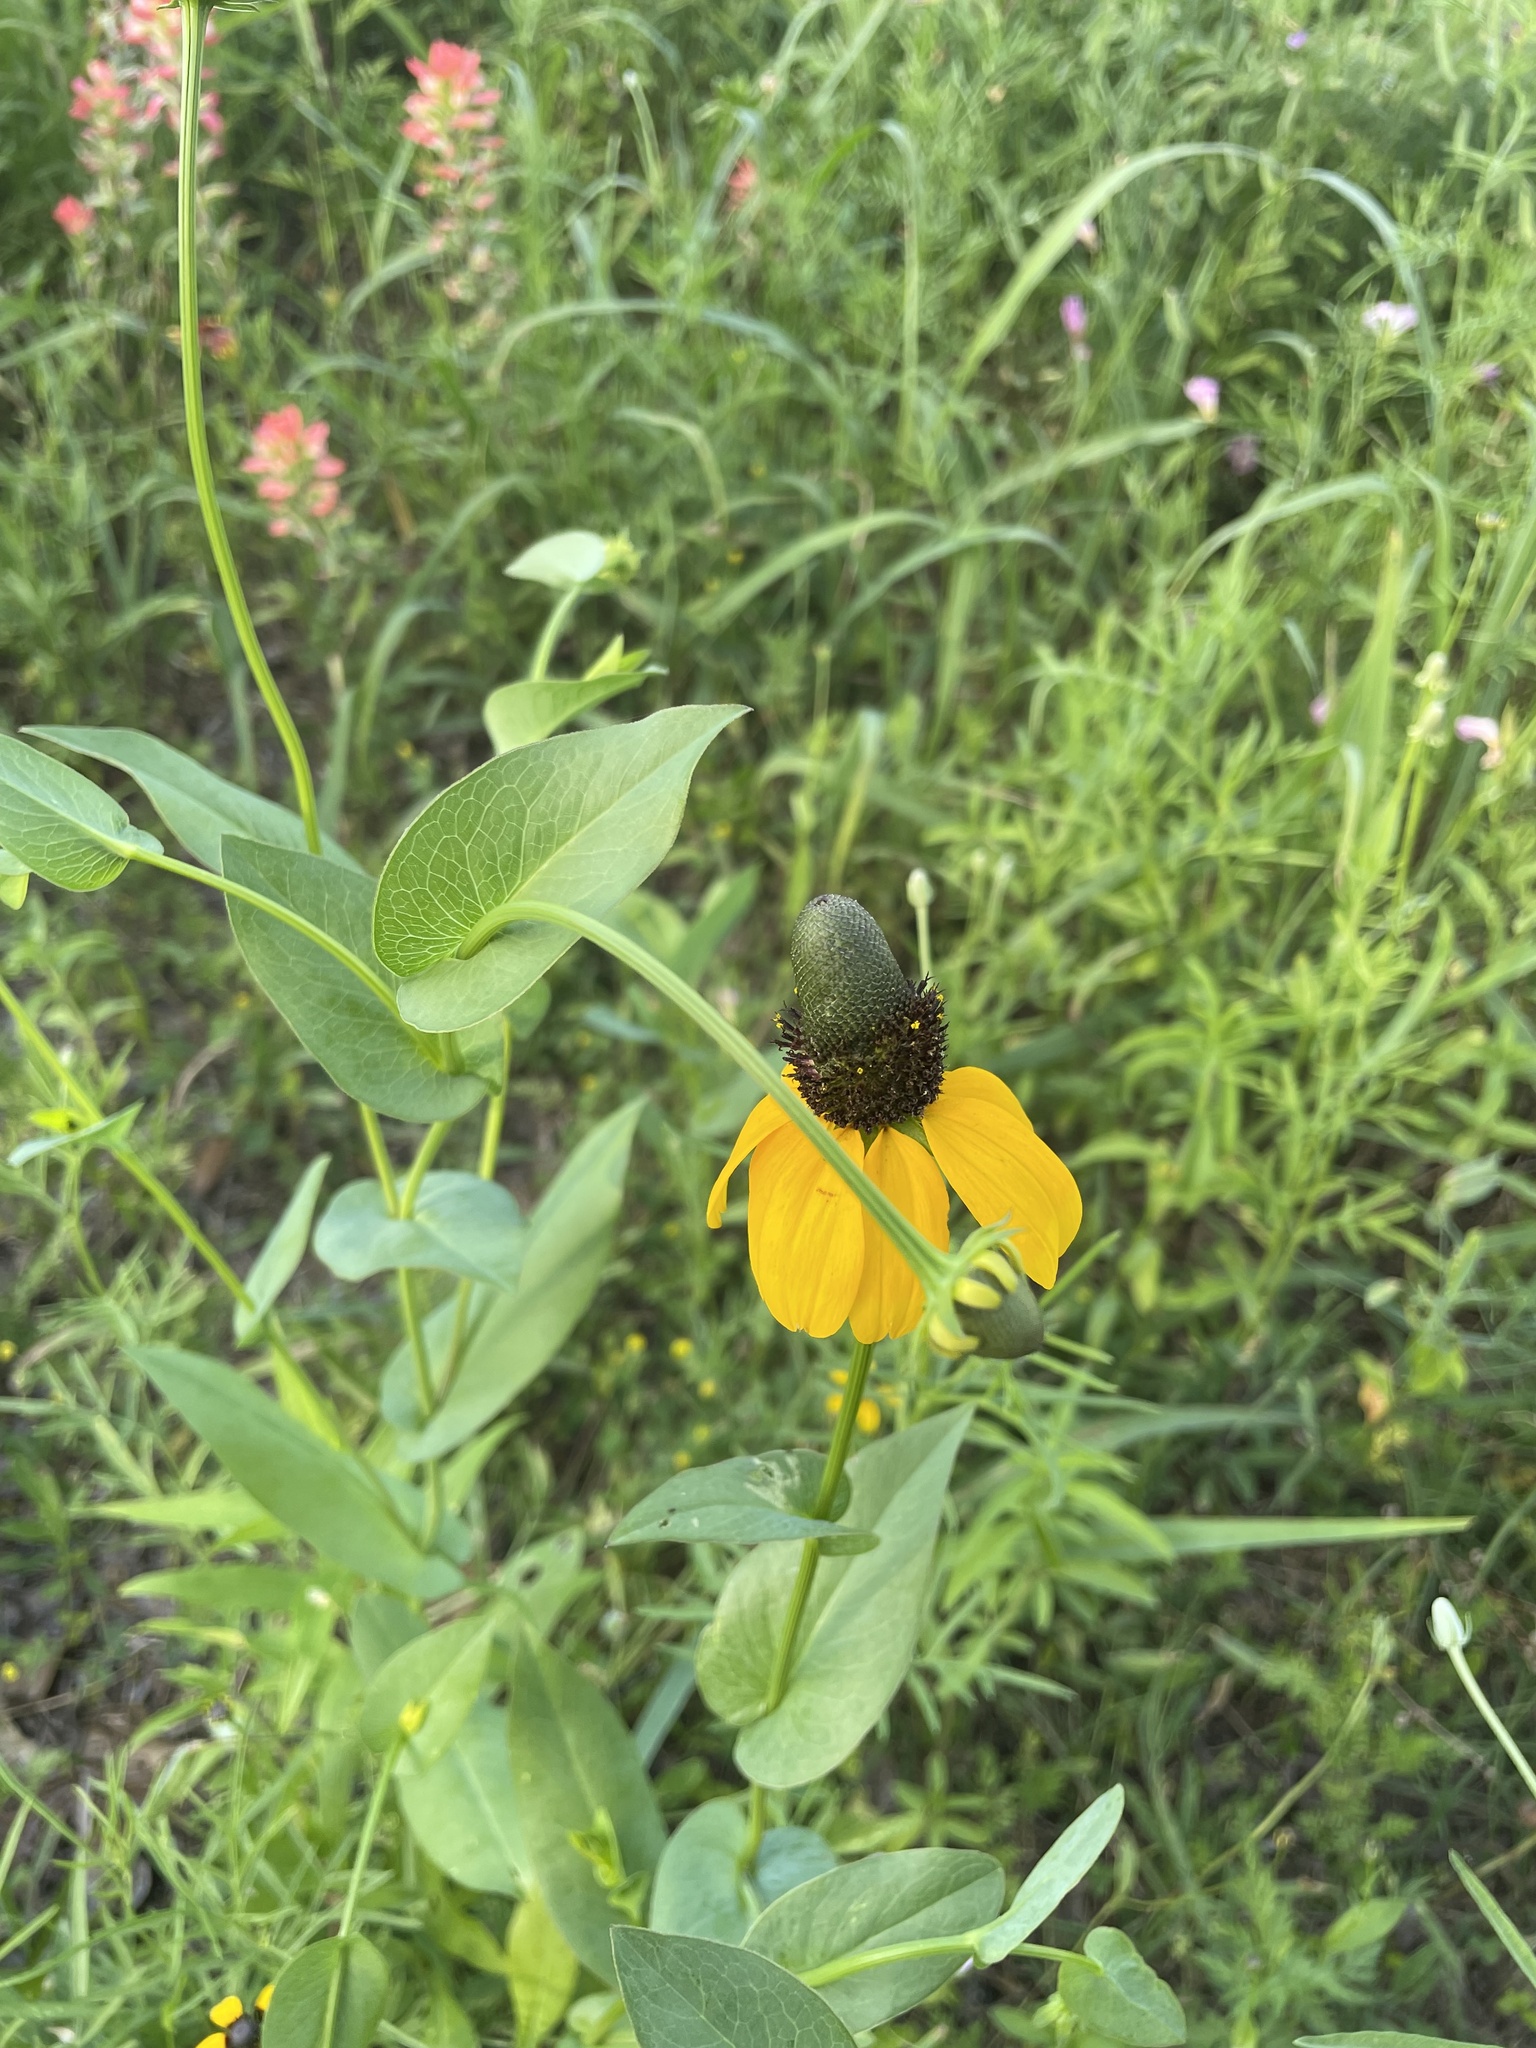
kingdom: Plantae
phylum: Tracheophyta
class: Magnoliopsida
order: Asterales
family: Asteraceae
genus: Rudbeckia
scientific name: Rudbeckia amplexicaulis
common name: Clasping-leaf coneflower
